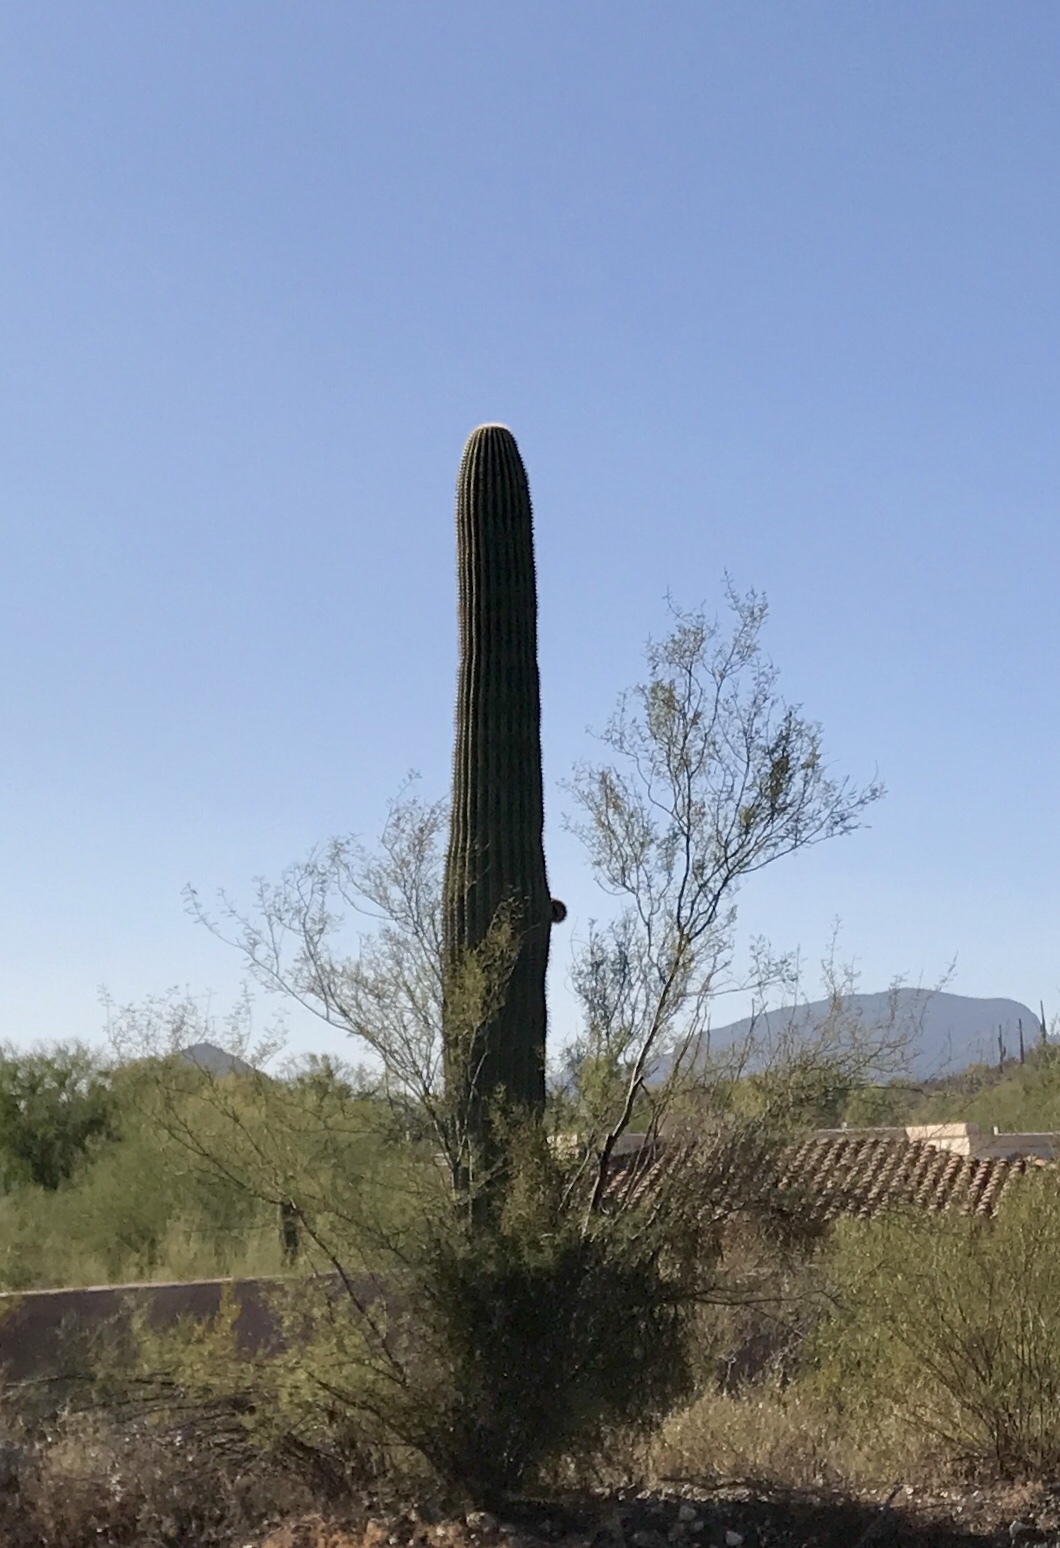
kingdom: Plantae
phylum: Tracheophyta
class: Magnoliopsida
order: Caryophyllales
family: Cactaceae
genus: Carnegiea
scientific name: Carnegiea gigantea
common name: Saguaro
